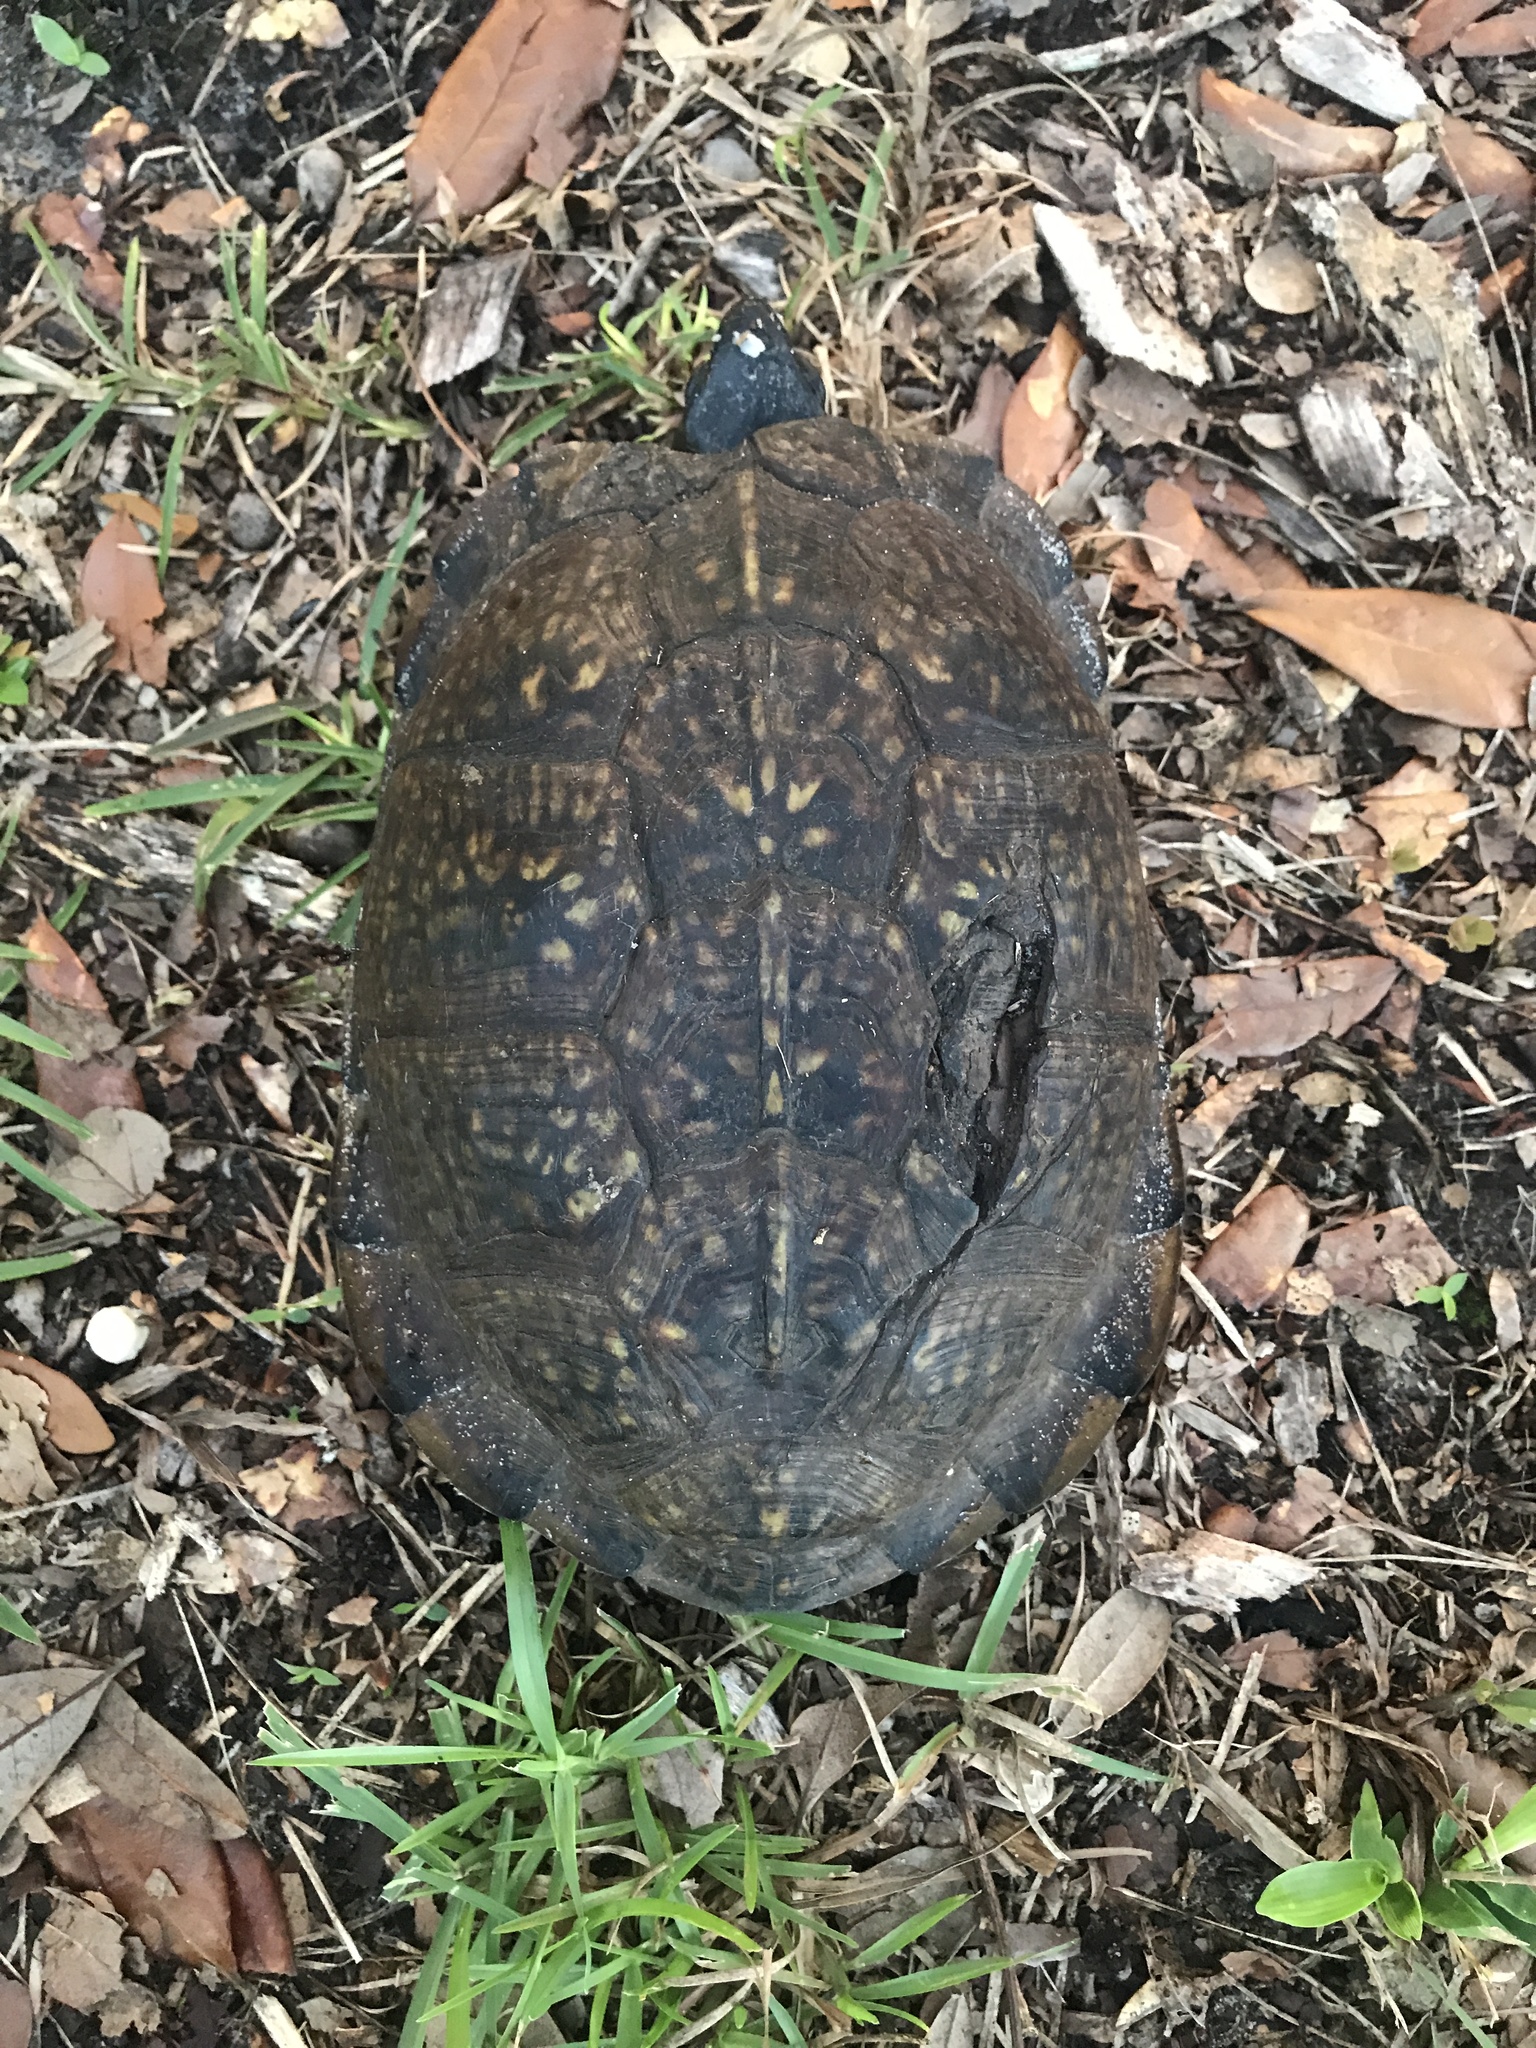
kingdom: Animalia
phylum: Chordata
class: Testudines
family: Emydidae
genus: Terrapene
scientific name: Terrapene carolina
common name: Common box turtle
